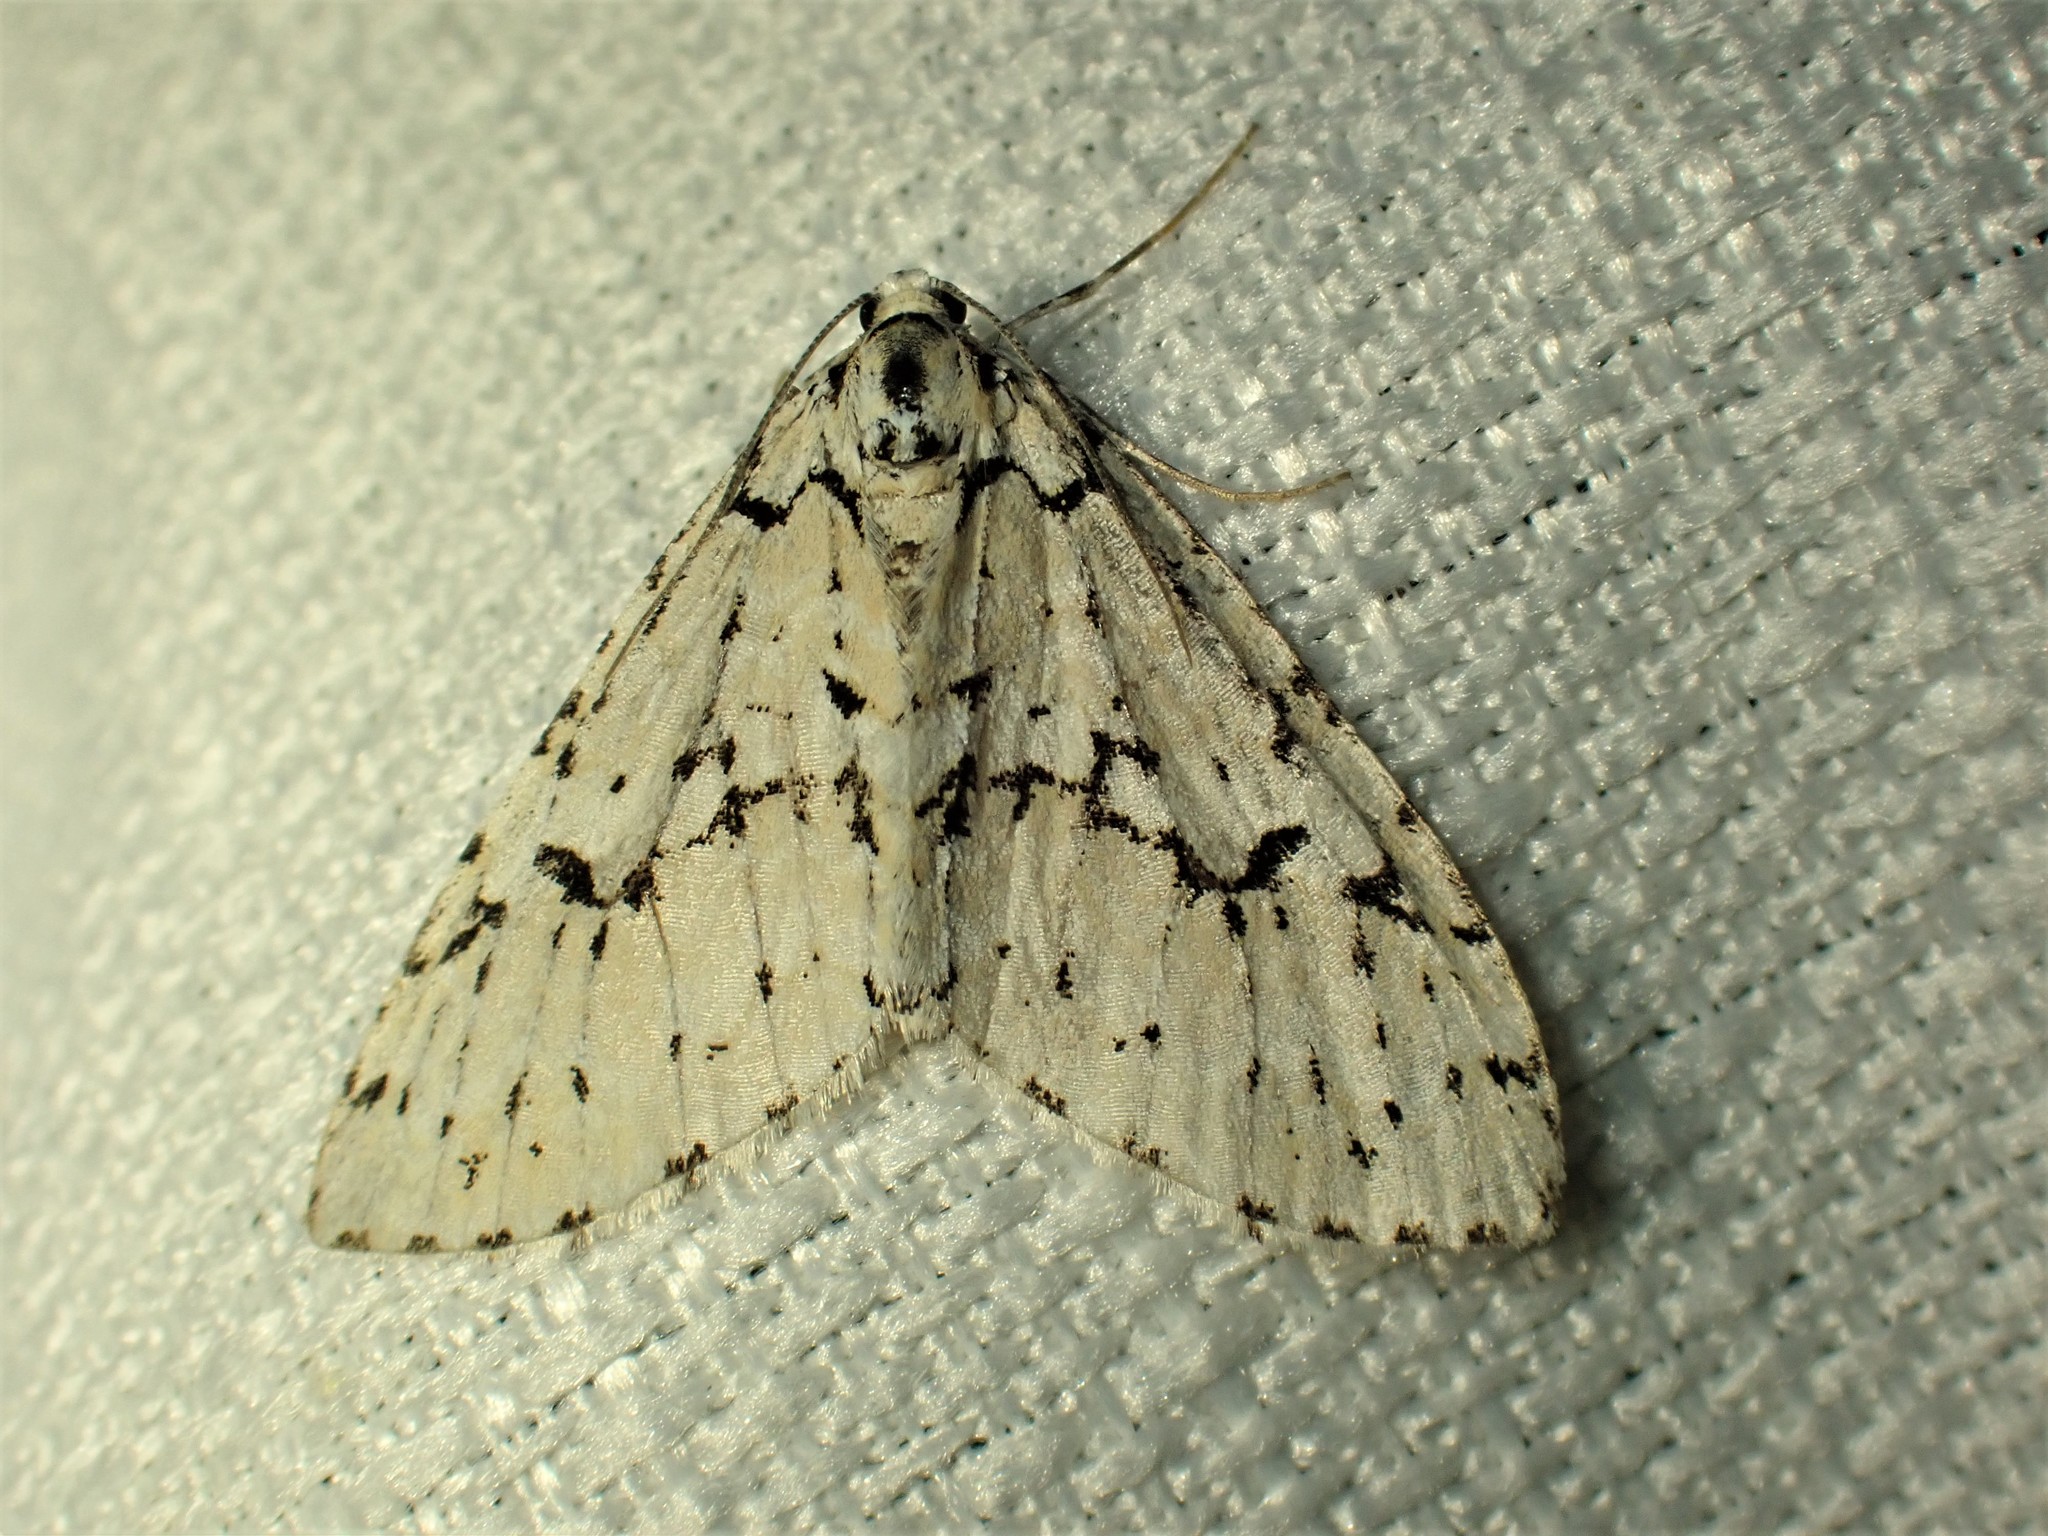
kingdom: Animalia
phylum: Arthropoda
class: Insecta
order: Lepidoptera
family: Geometridae
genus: Cladara
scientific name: Cladara atroliturata
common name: Scribbler
